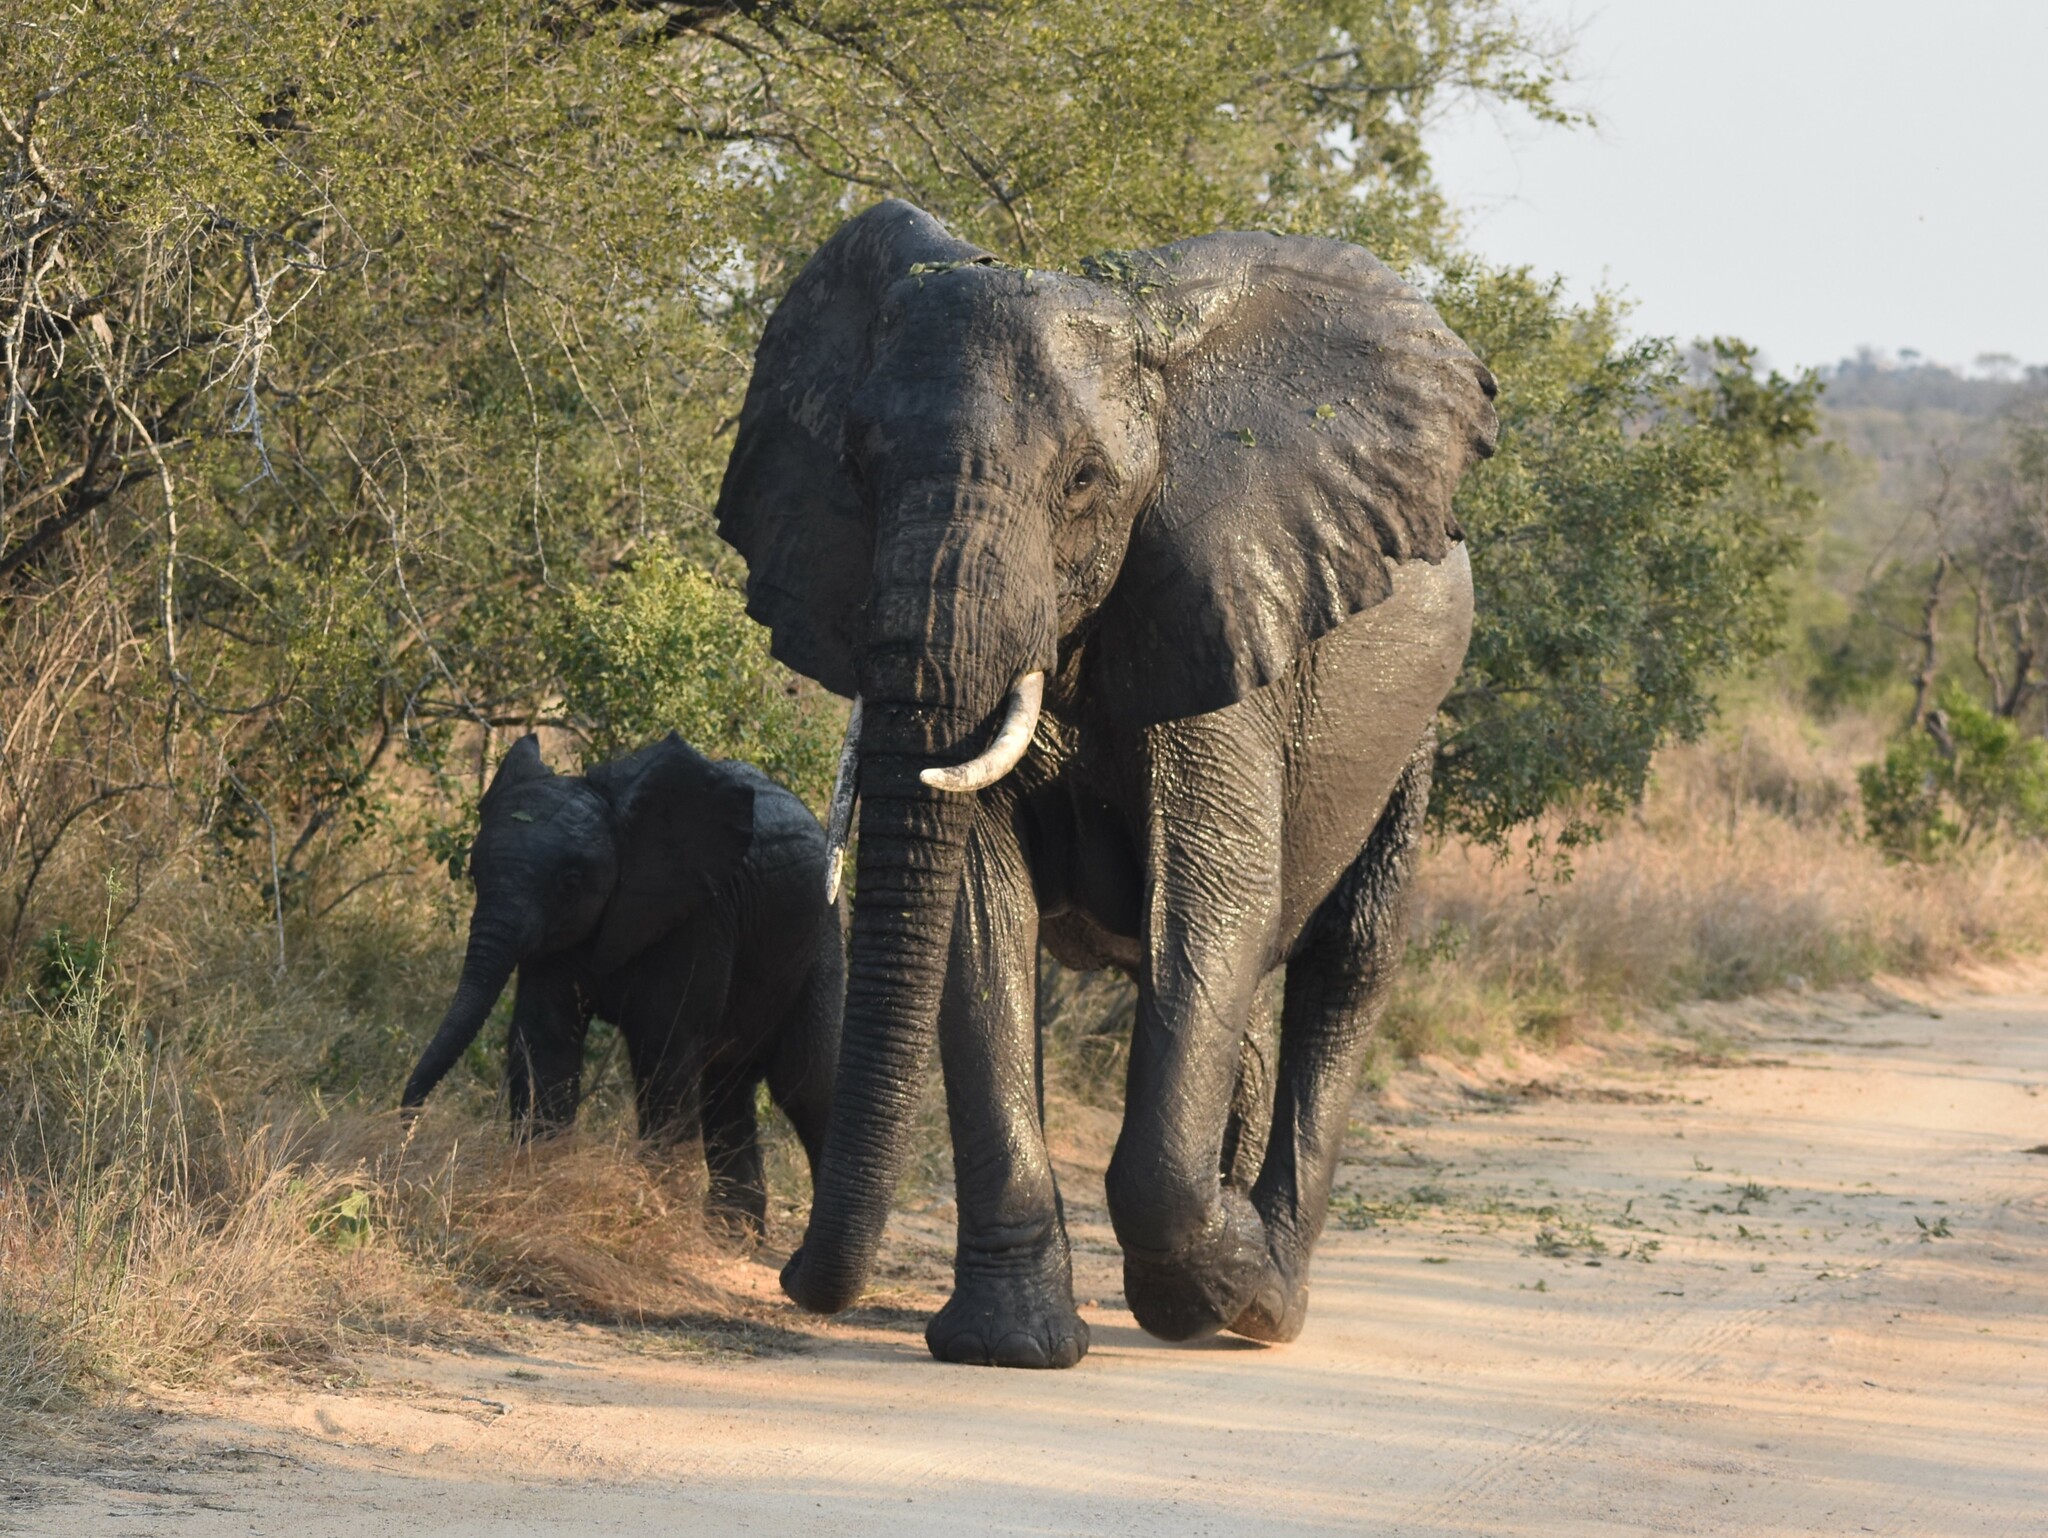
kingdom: Animalia
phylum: Chordata
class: Mammalia
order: Proboscidea
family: Elephantidae
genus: Loxodonta
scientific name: Loxodonta africana
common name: African elephant
